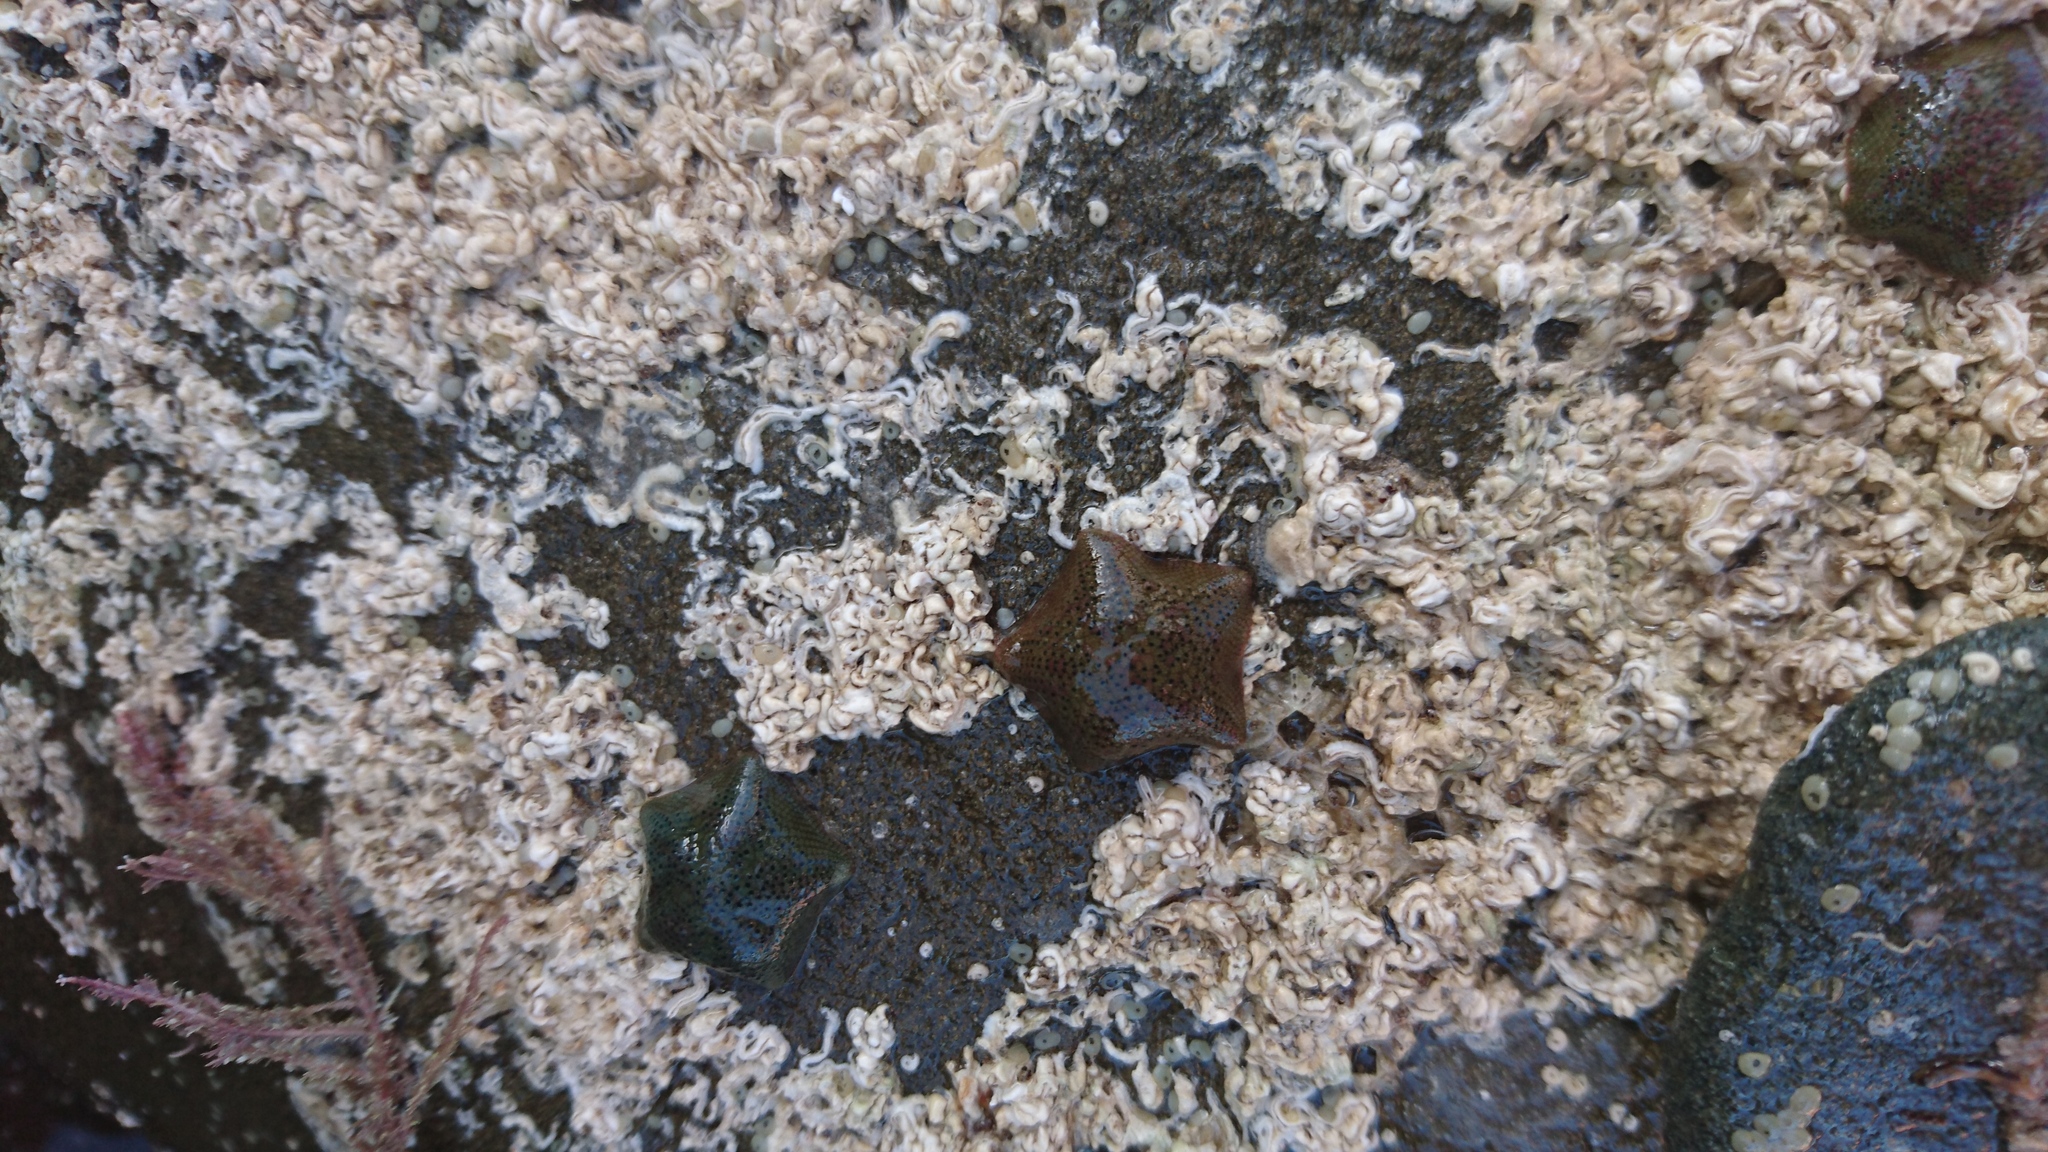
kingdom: Animalia
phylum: Echinodermata
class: Asteroidea
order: Valvatida
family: Asterinidae
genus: Parvulastra
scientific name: Parvulastra exigua
